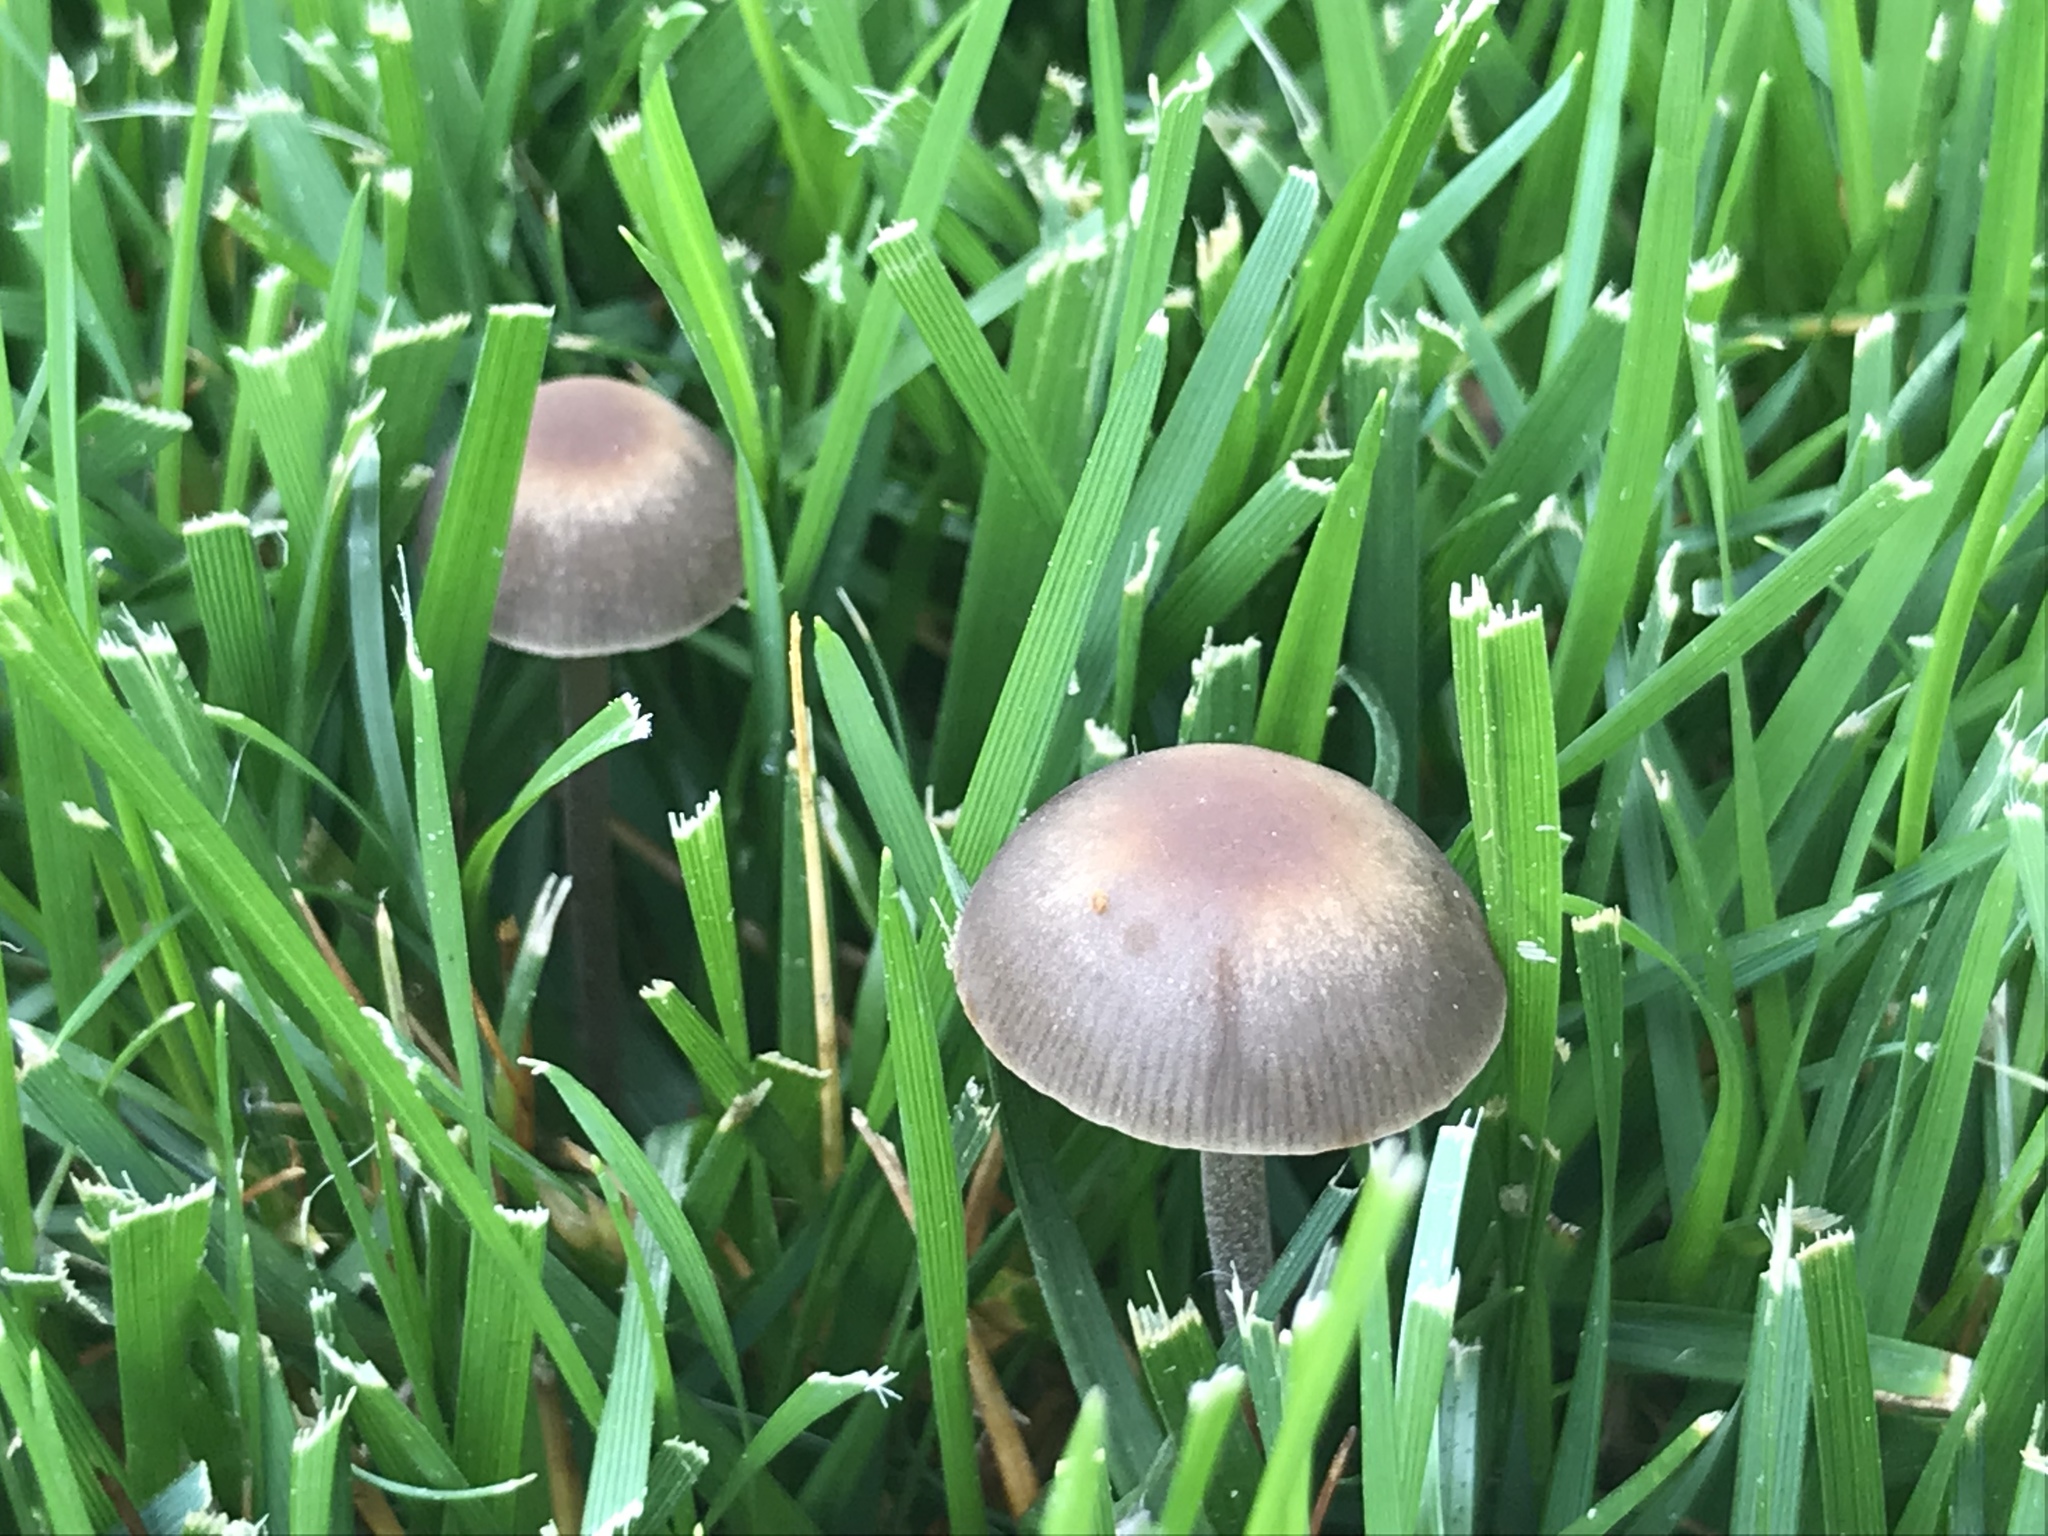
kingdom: Fungi
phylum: Basidiomycota
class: Agaricomycetes
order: Agaricales
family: Bolbitiaceae
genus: Panaeolina
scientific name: Panaeolina foenisecii
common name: Brown hay cap
